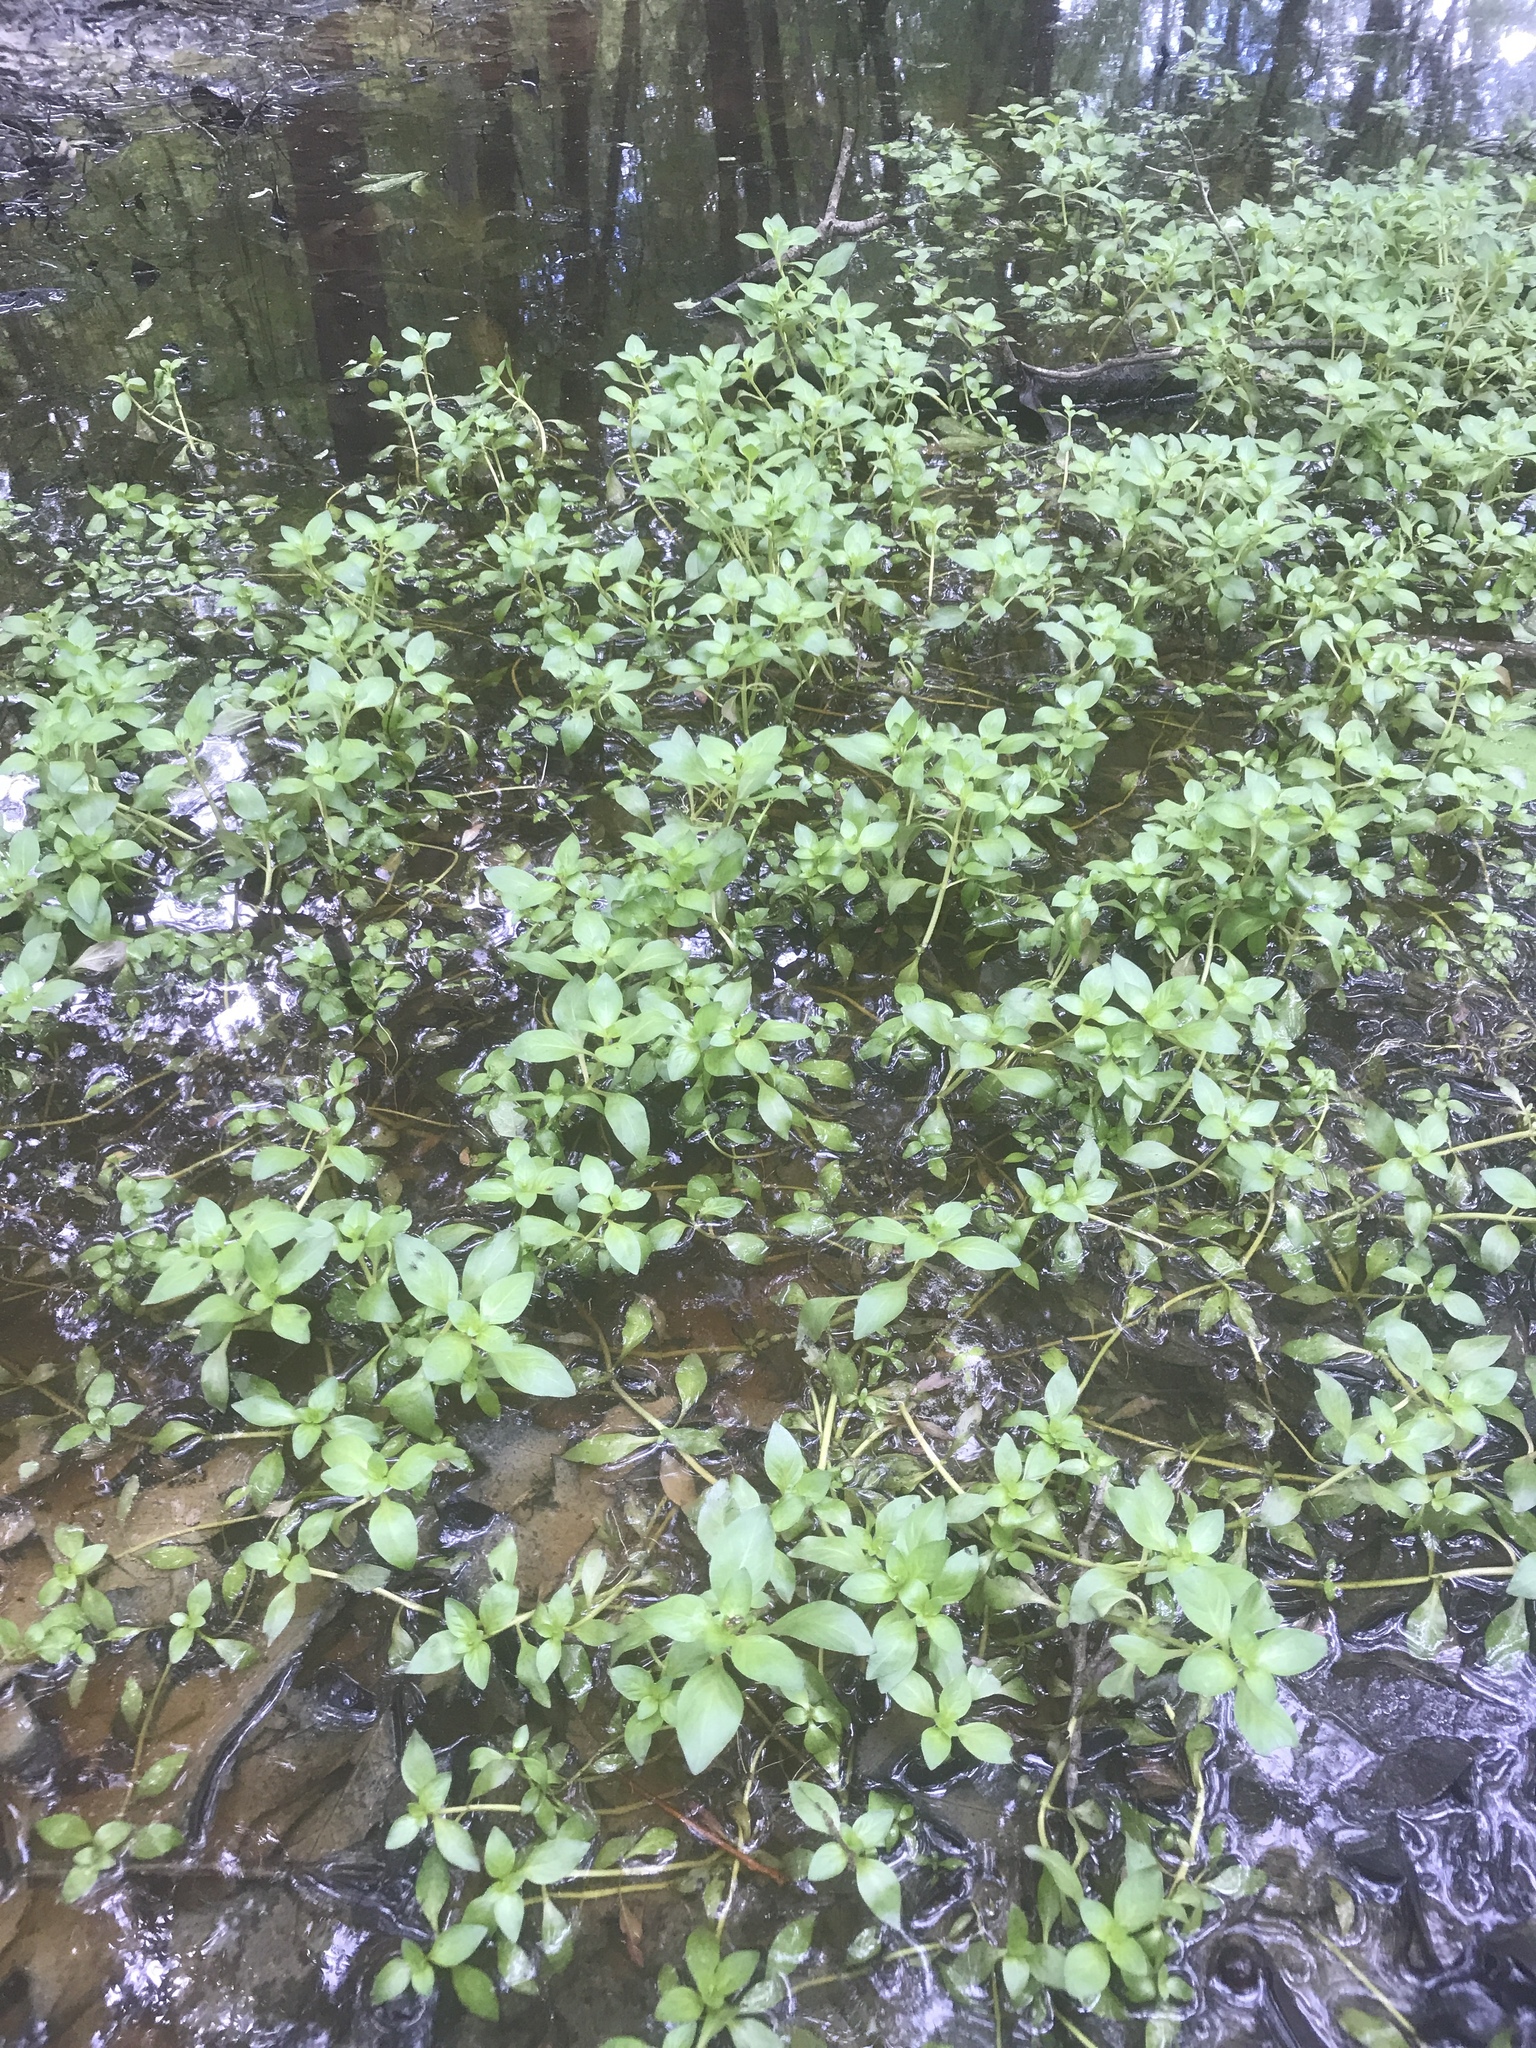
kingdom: Plantae
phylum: Tracheophyta
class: Magnoliopsida
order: Myrtales
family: Onagraceae
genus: Ludwigia
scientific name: Ludwigia palustris
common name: Hampshire-purslane
